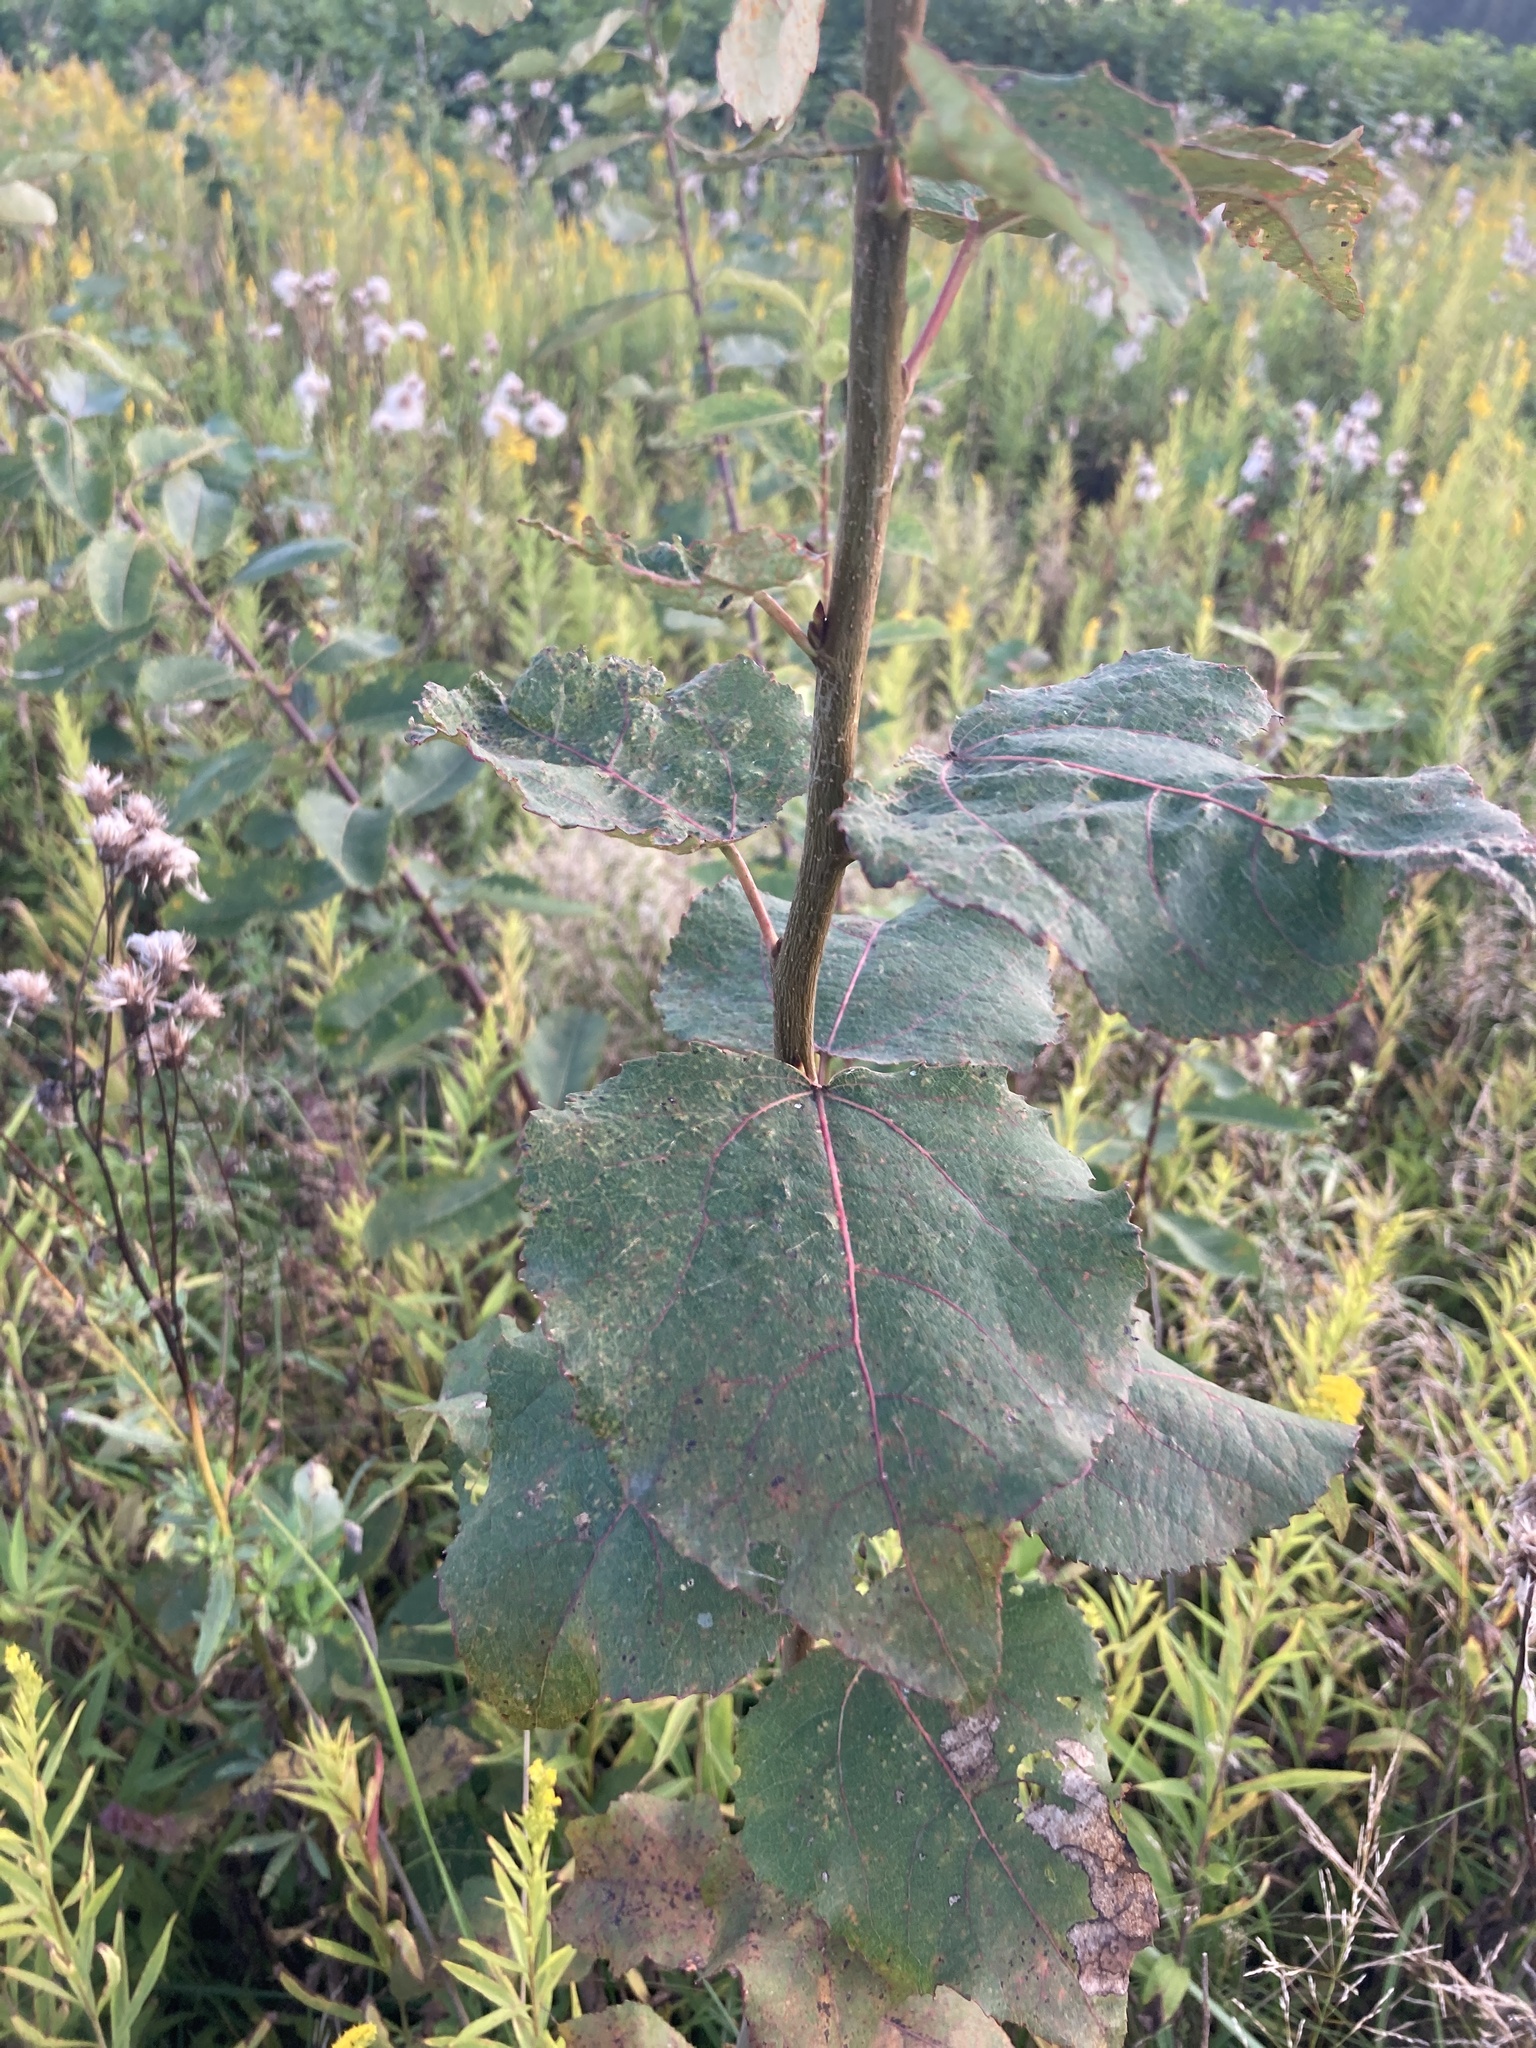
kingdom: Plantae
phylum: Tracheophyta
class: Magnoliopsida
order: Malpighiales
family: Salicaceae
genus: Populus
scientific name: Populus tremula
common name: European aspen
